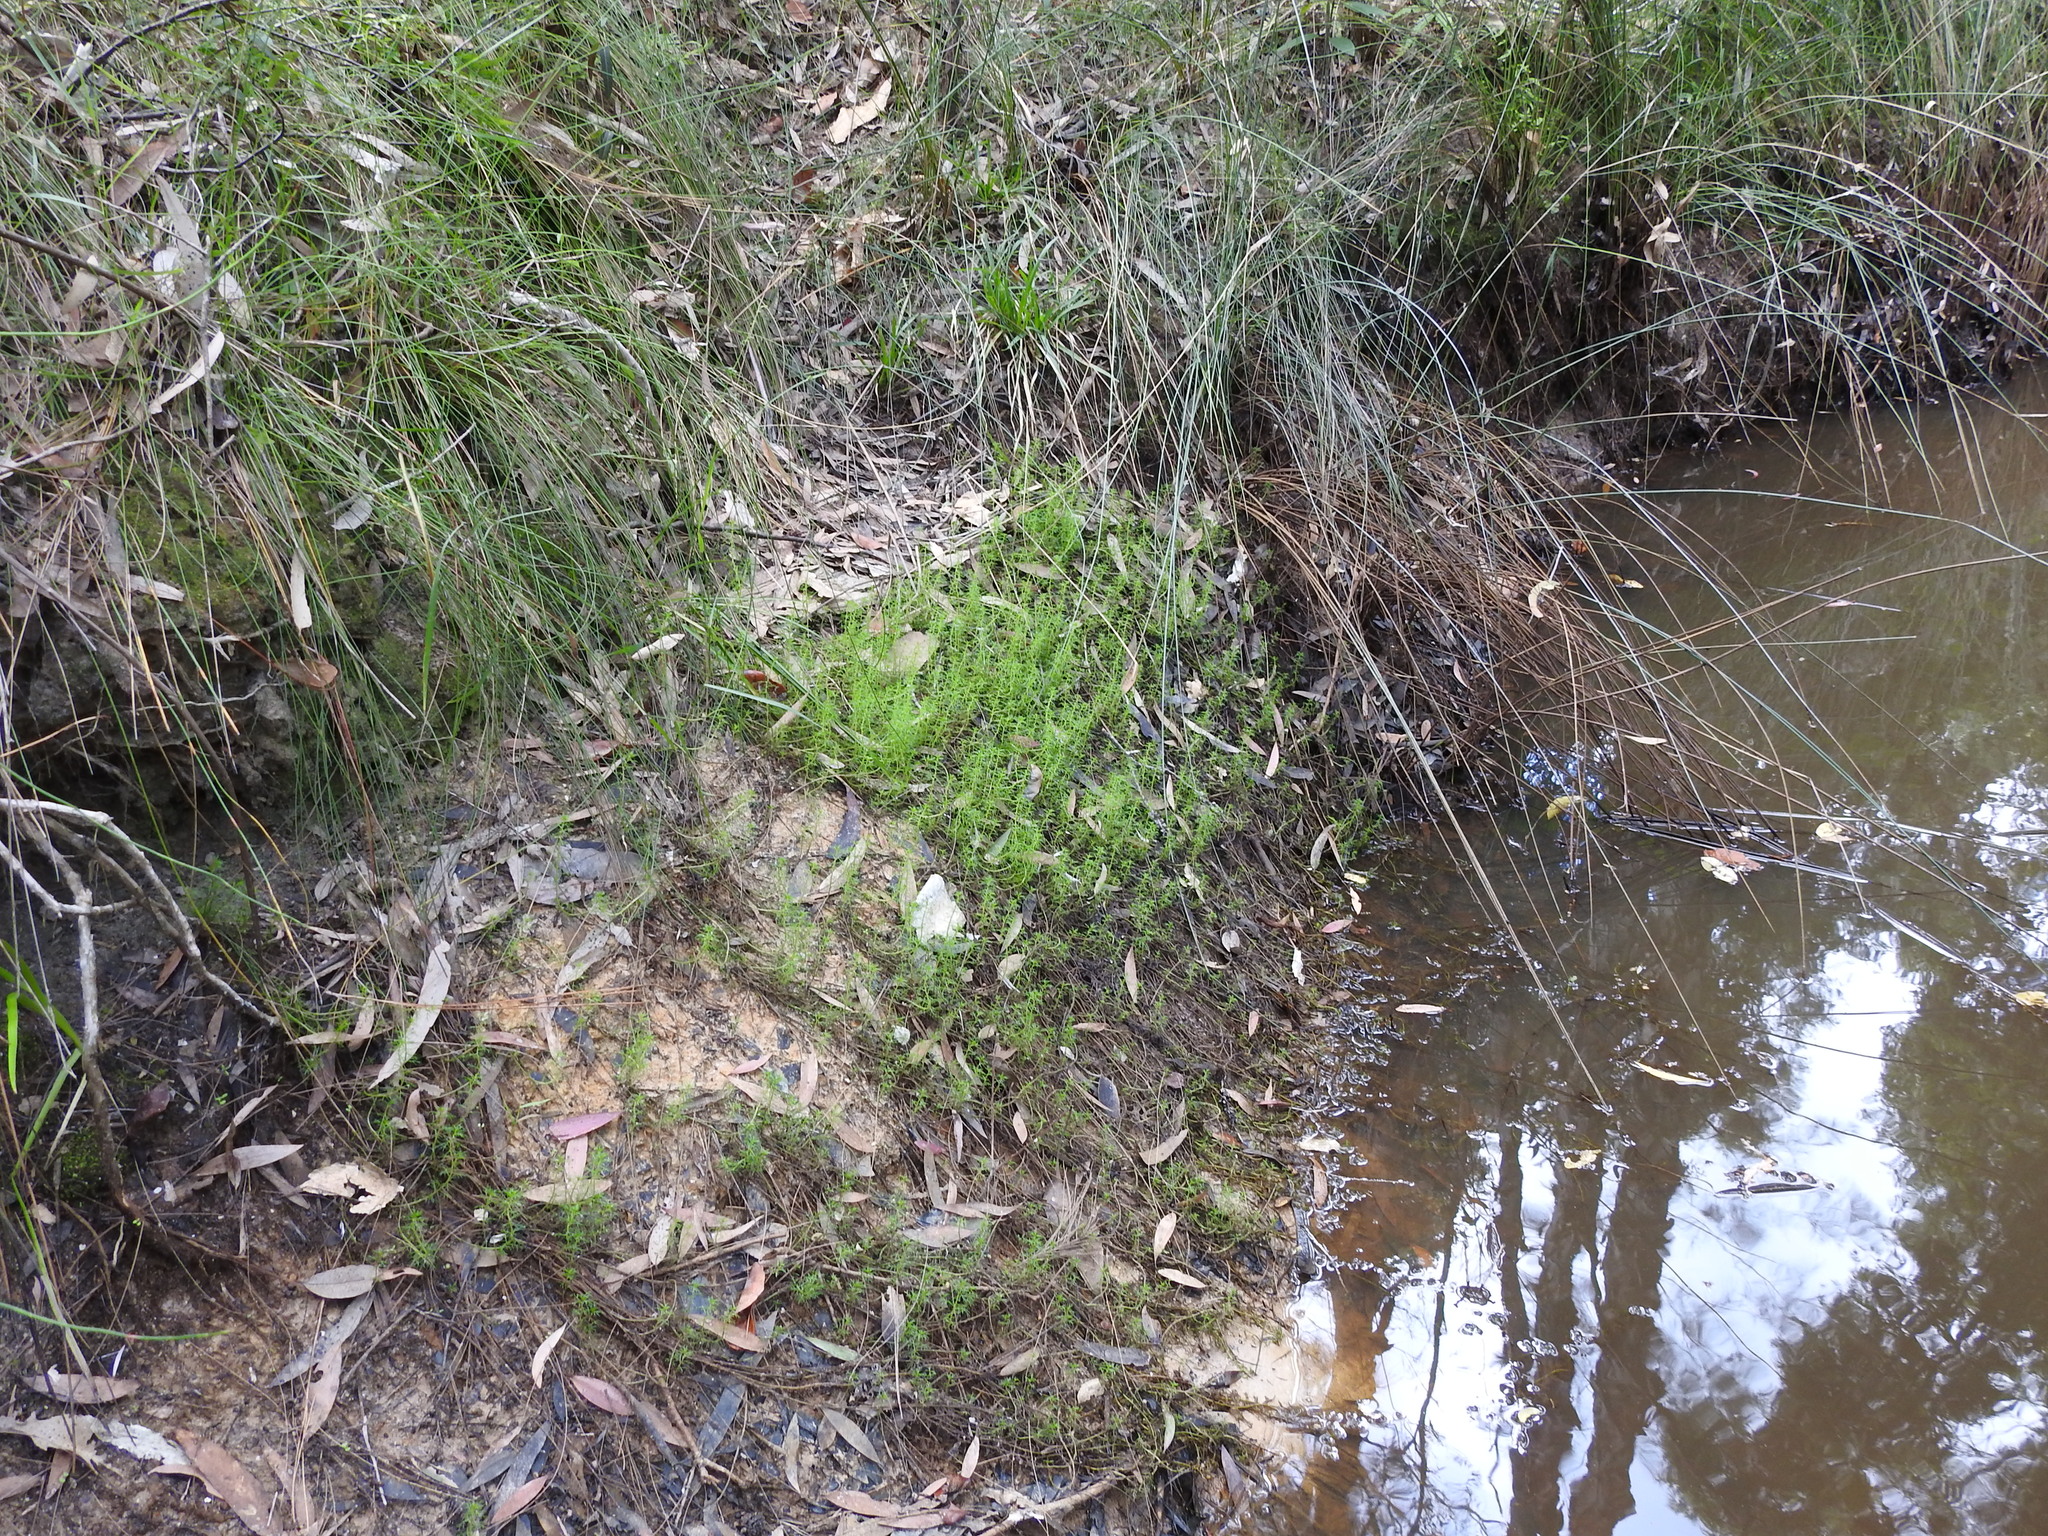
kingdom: Plantae
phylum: Tracheophyta
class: Magnoliopsida
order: Saxifragales
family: Haloragaceae
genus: Myriophyllum
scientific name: Myriophyllum gracile
